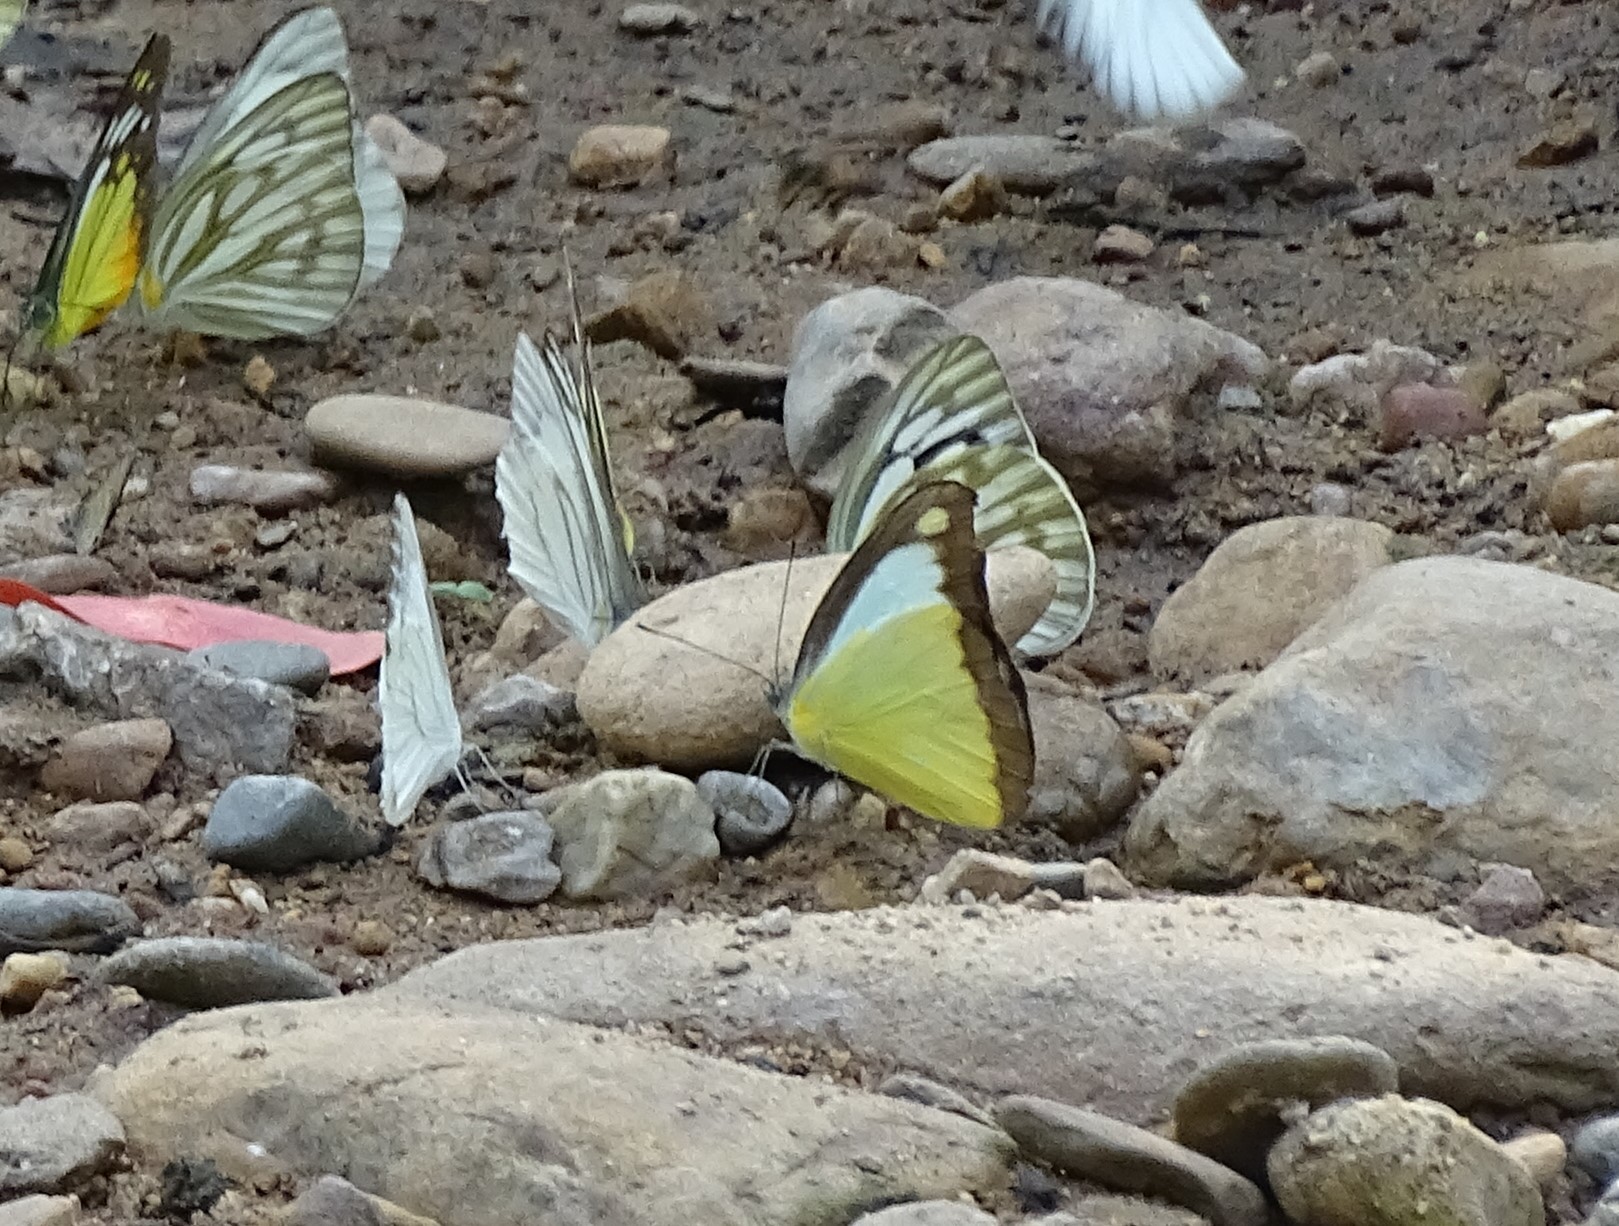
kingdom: Animalia
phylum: Arthropoda
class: Insecta
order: Lepidoptera
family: Pieridae
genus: Appias
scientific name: Appias lyncida
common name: Chocolate albatross
